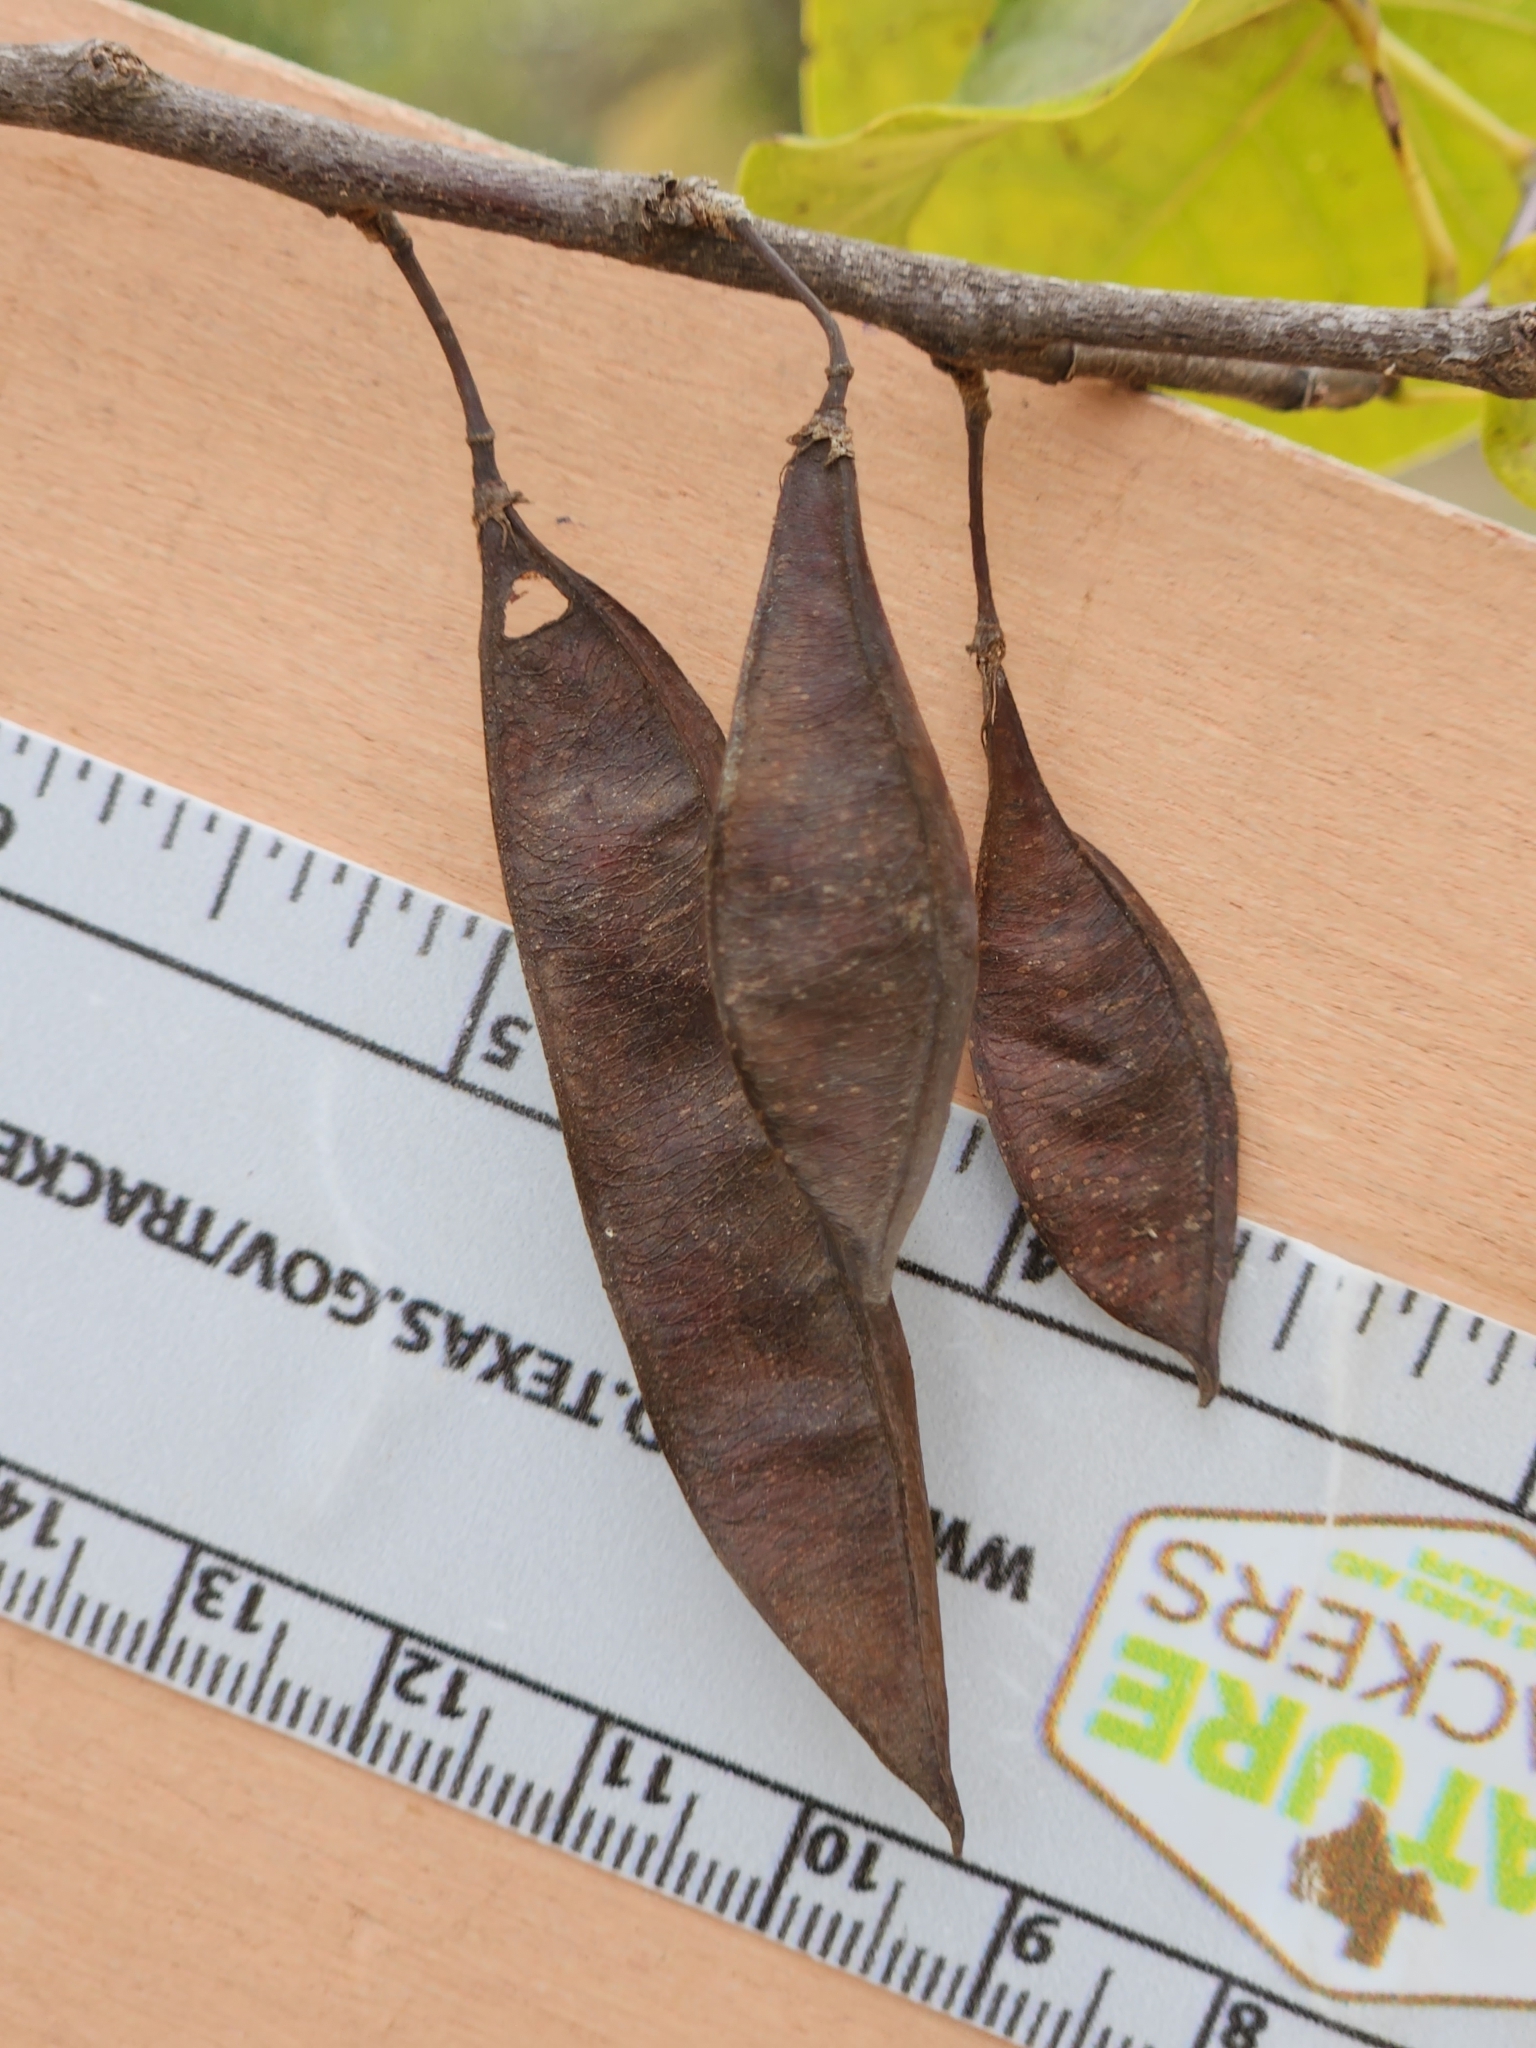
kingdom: Plantae
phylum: Tracheophyta
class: Magnoliopsida
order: Fabales
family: Fabaceae
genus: Cercis
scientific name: Cercis canadensis
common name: Eastern redbud
